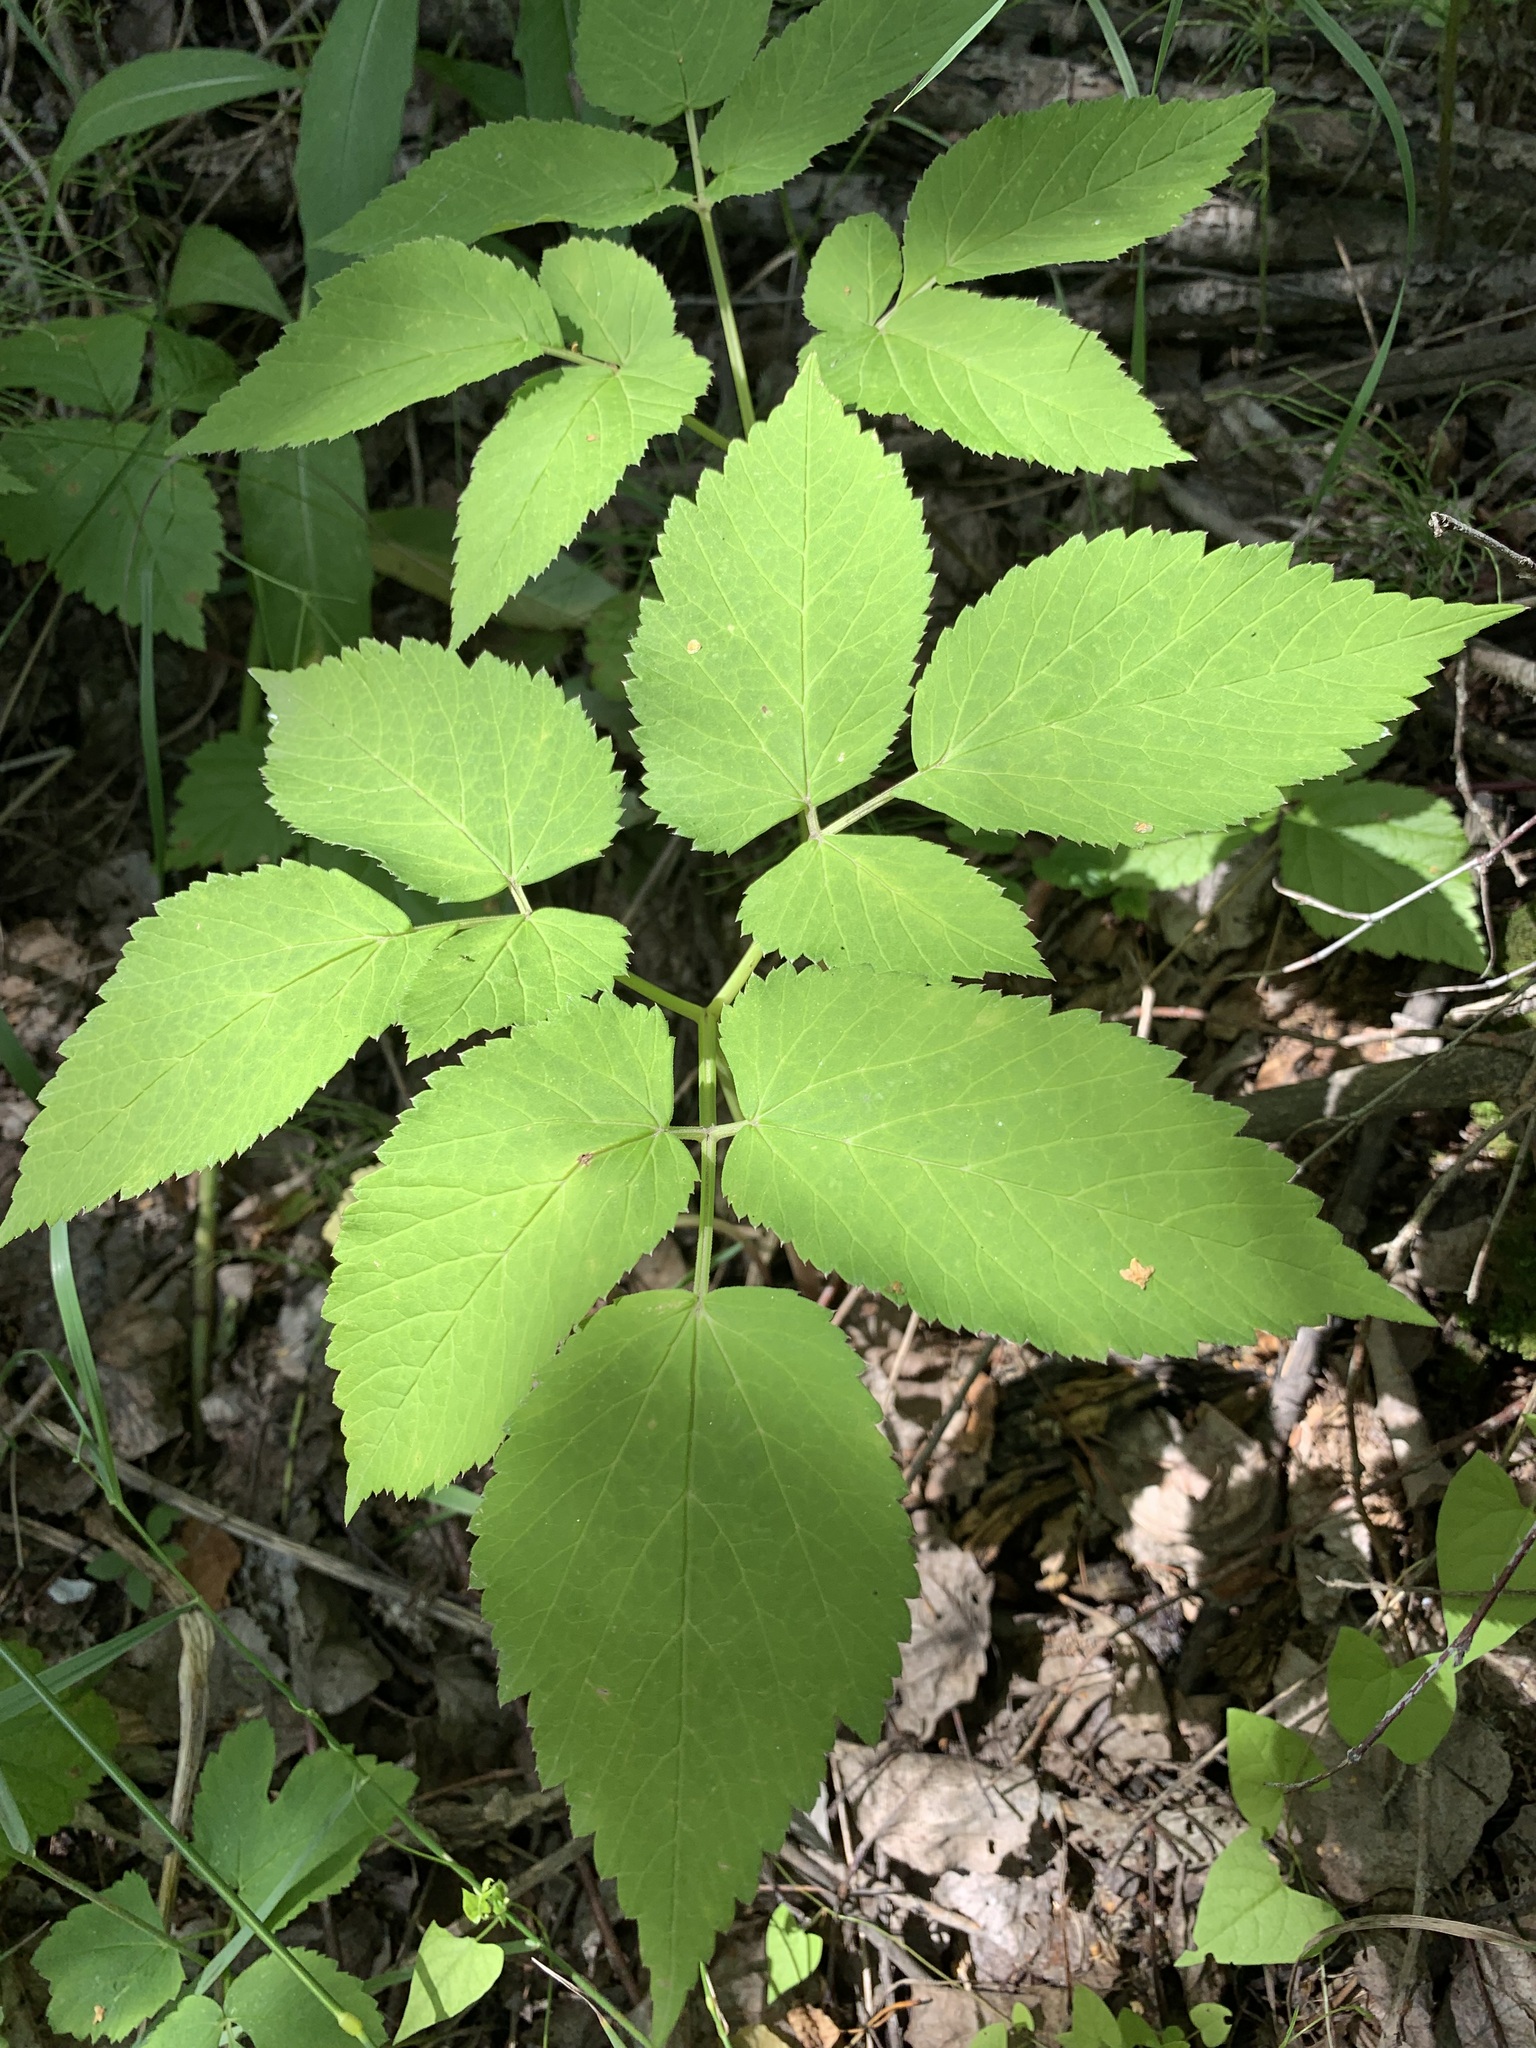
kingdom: Plantae
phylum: Tracheophyta
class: Magnoliopsida
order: Apiales
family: Apiaceae
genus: Aegopodium
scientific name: Aegopodium podagraria
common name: Ground-elder
